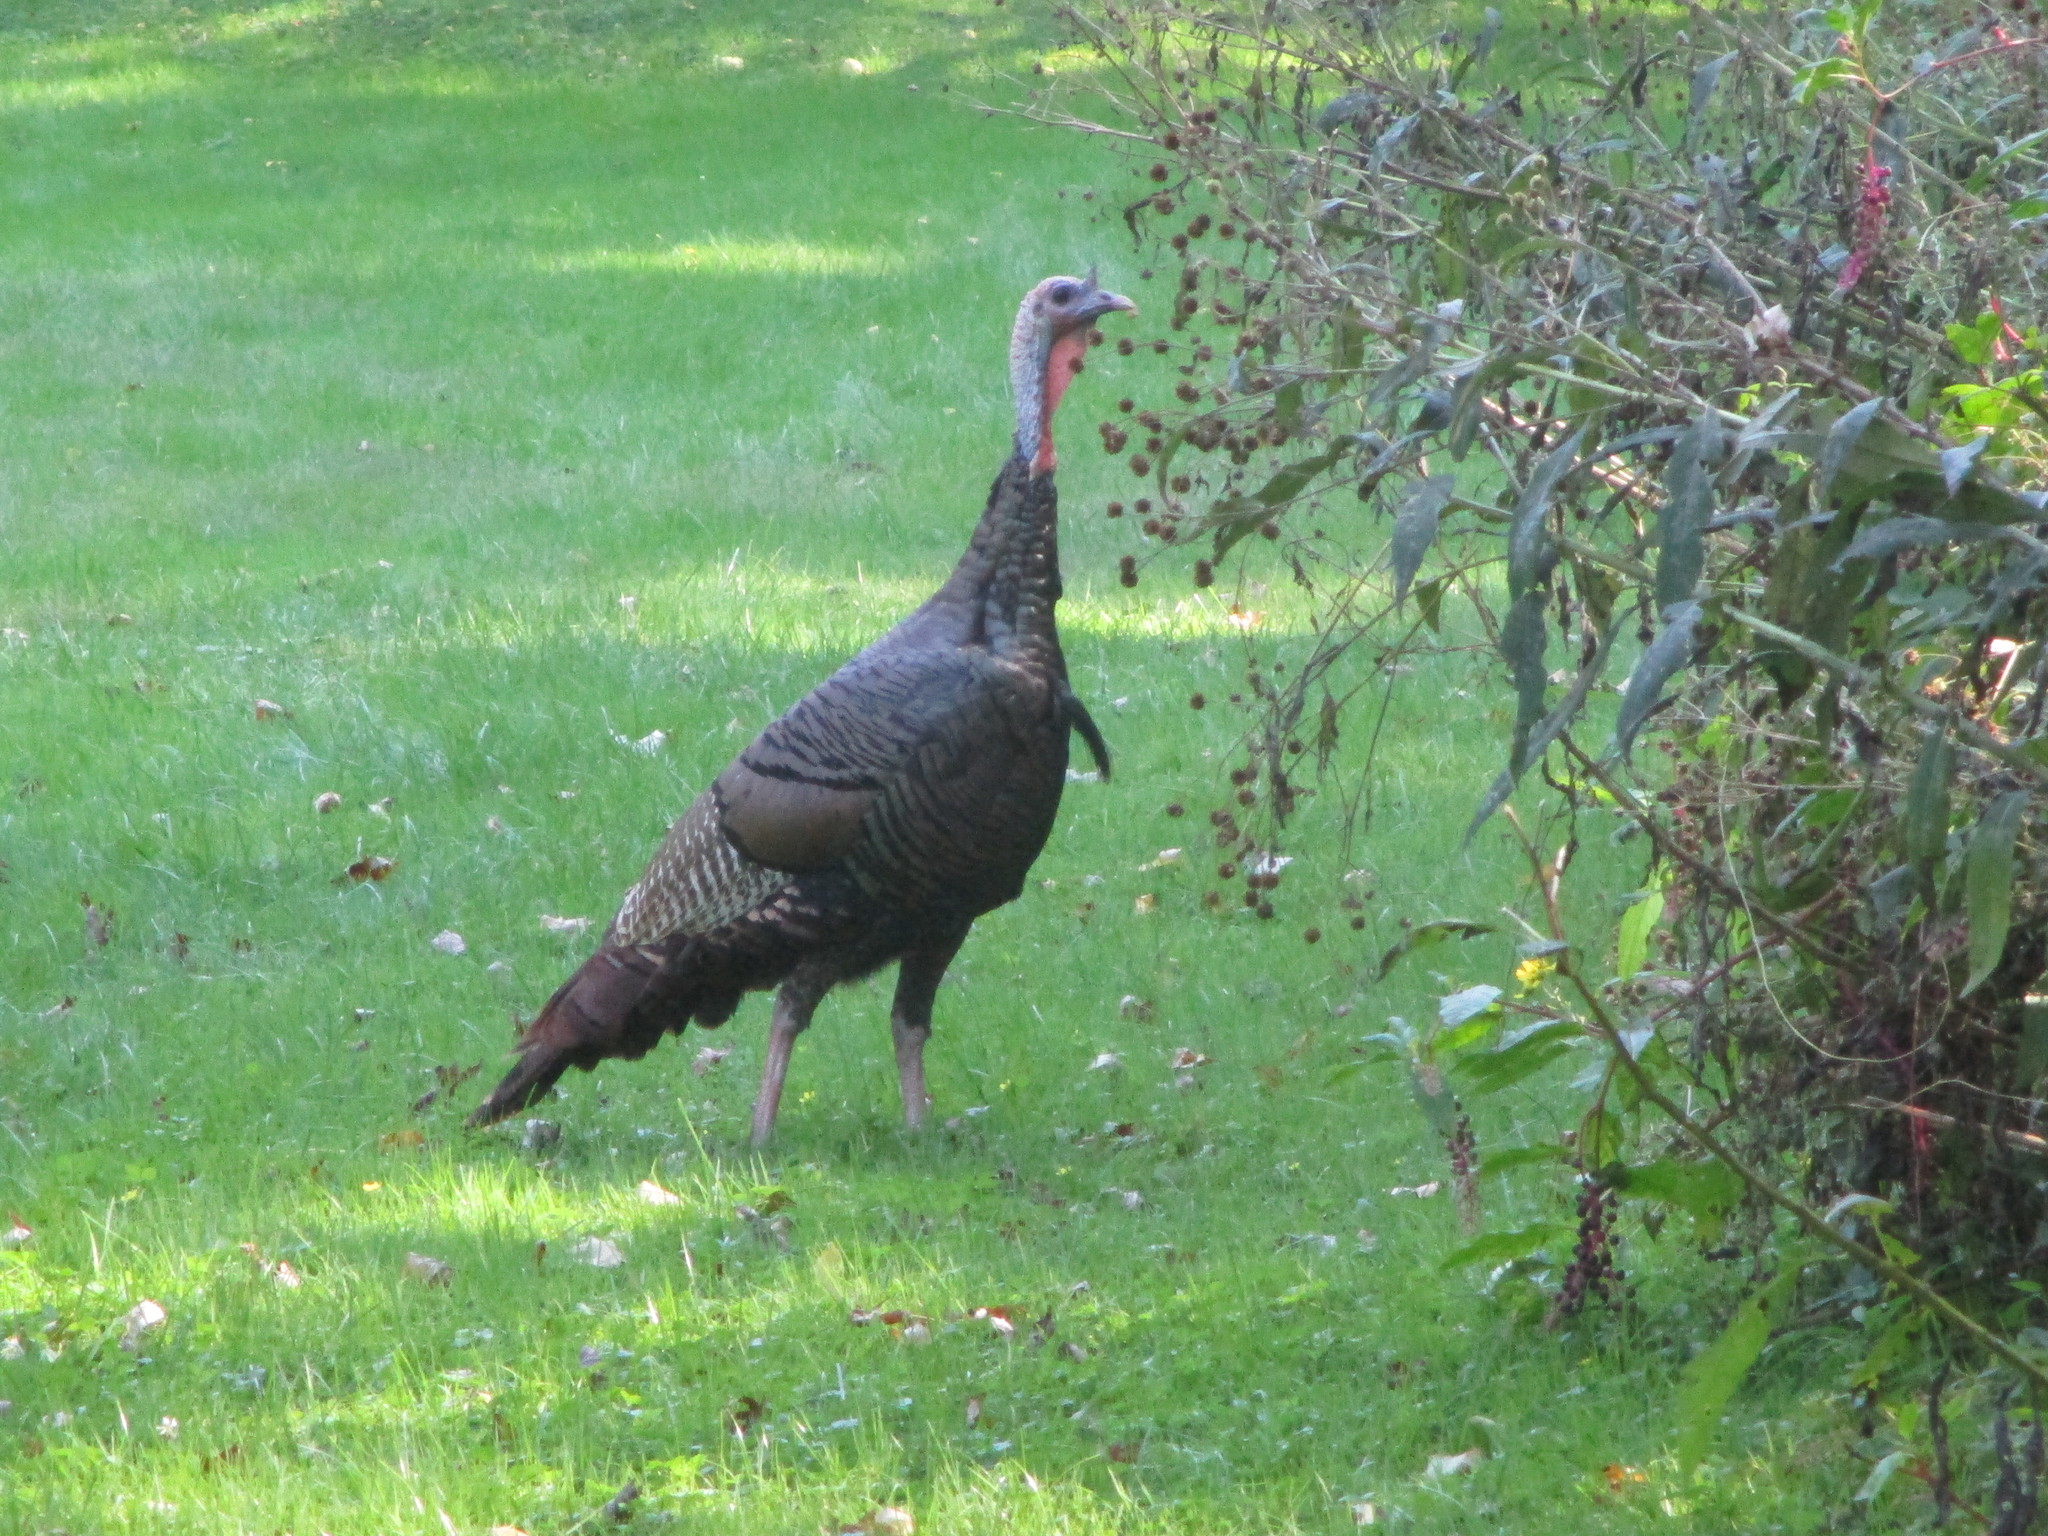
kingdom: Animalia
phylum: Chordata
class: Aves
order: Galliformes
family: Phasianidae
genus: Meleagris
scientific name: Meleagris gallopavo
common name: Wild turkey
